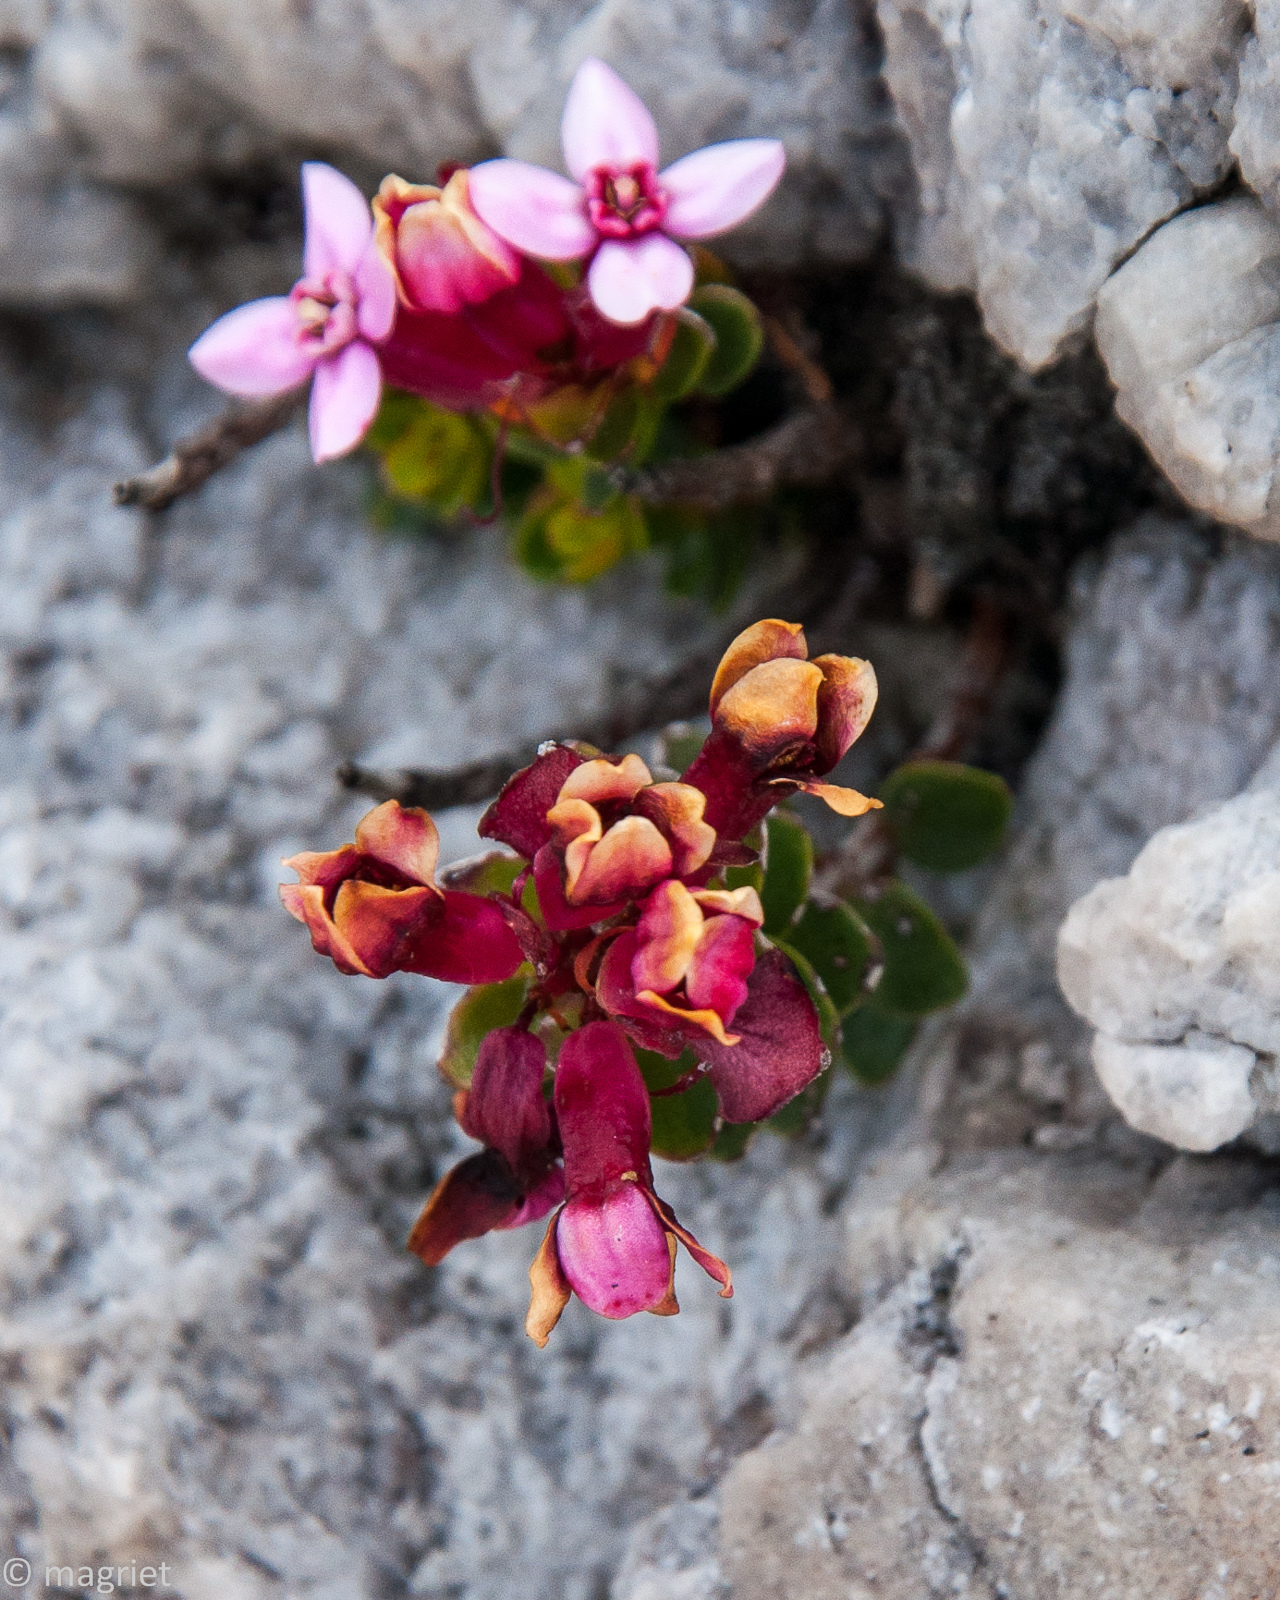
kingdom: Plantae
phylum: Tracheophyta
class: Magnoliopsida
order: Myrtales
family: Penaeaceae
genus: Sonderothamnus
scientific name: Sonderothamnus petraeus
